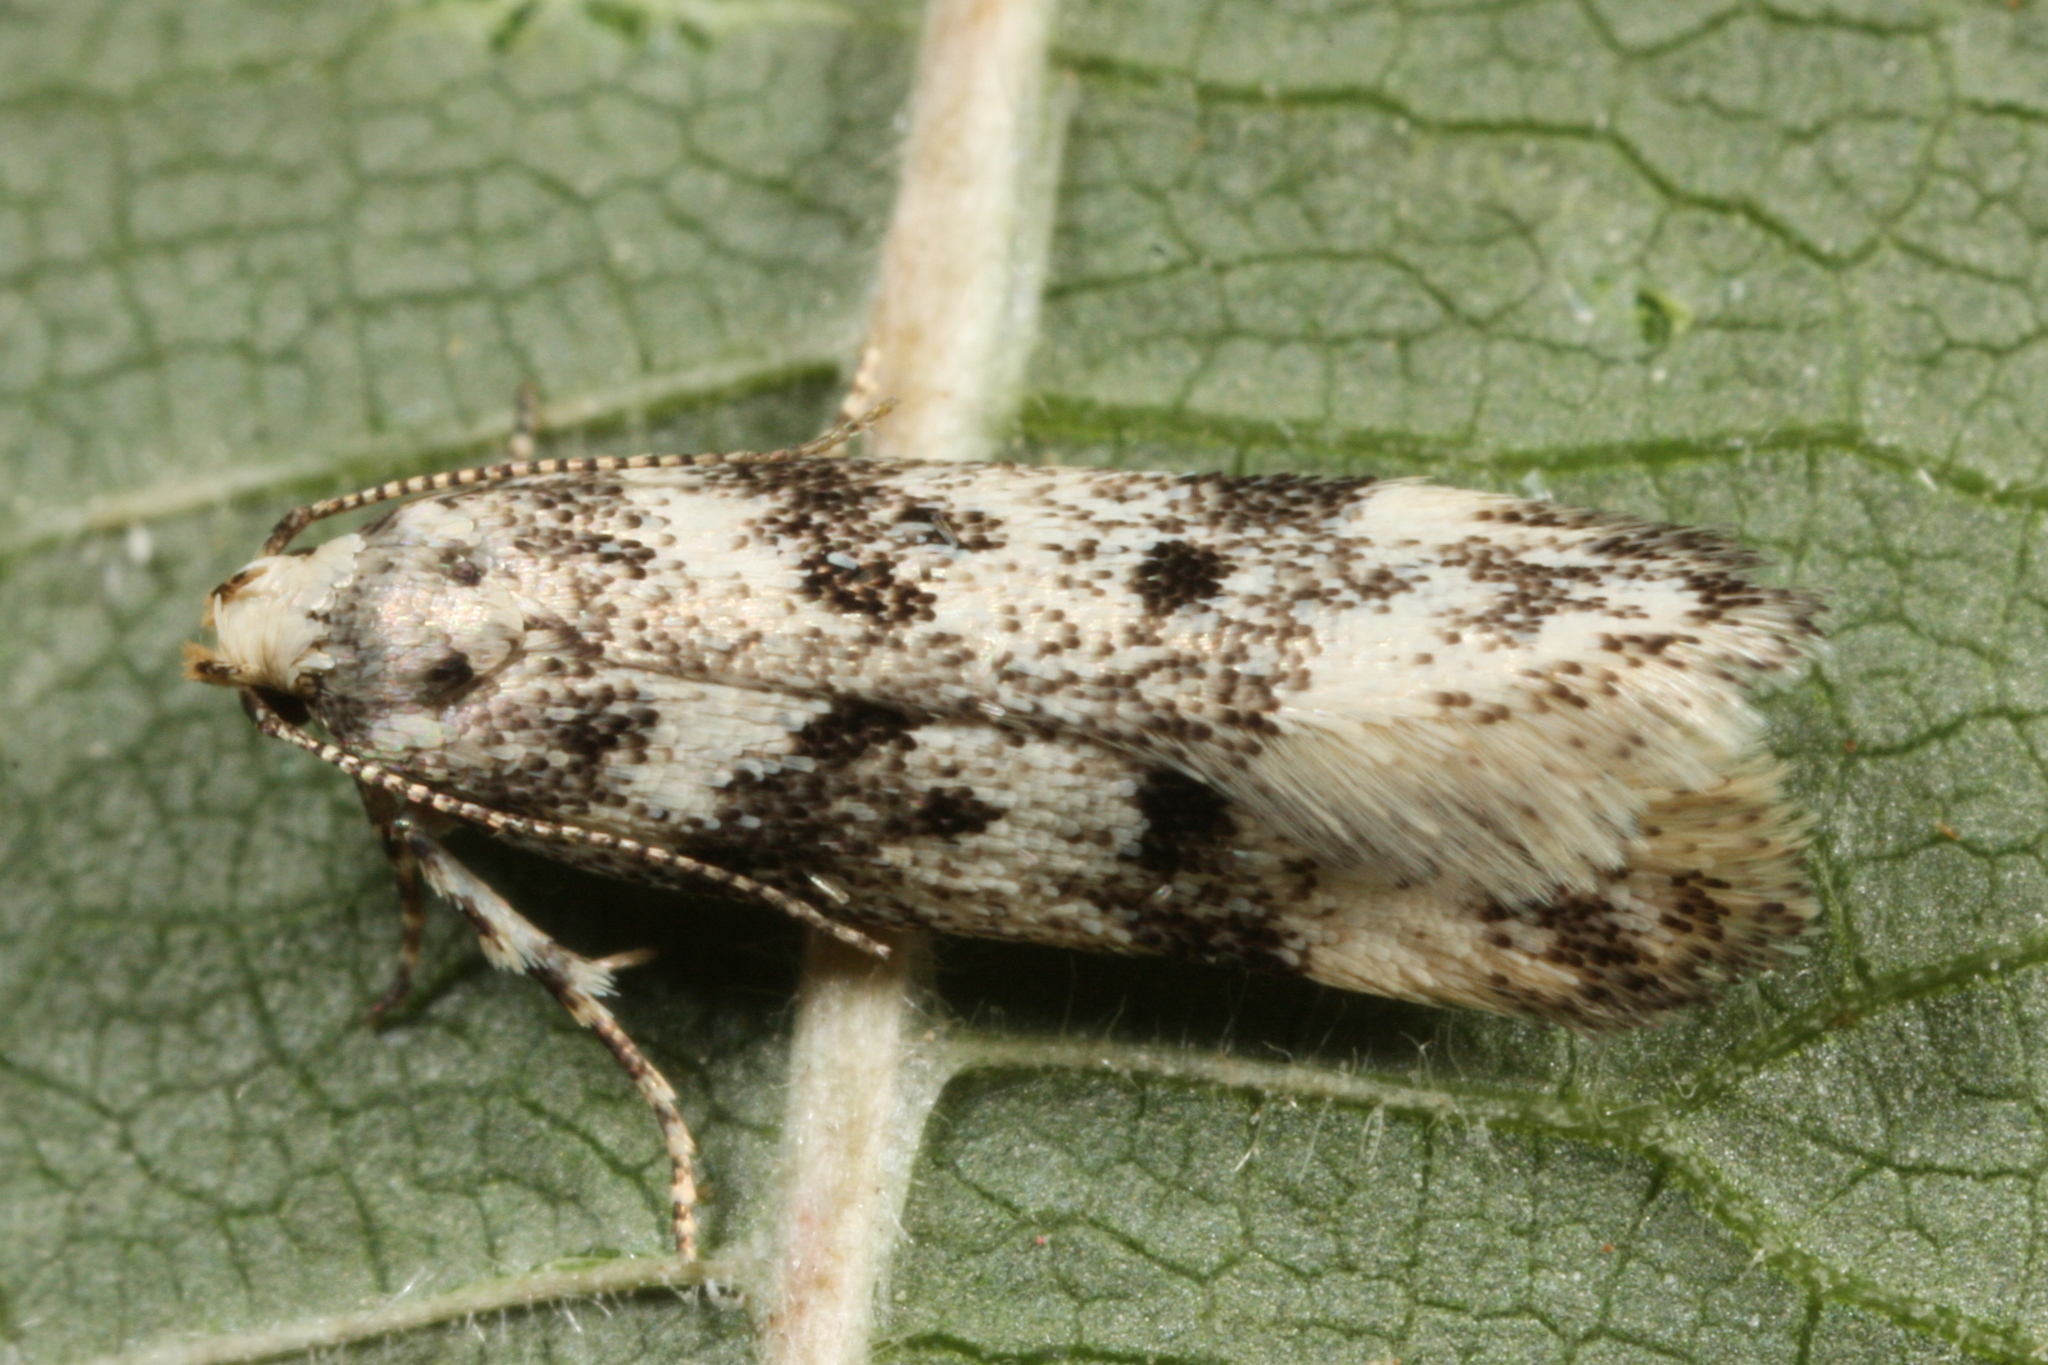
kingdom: Animalia
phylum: Arthropoda
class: Insecta
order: Lepidoptera
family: Gelechiidae
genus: Chionodes
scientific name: Chionodes electella
